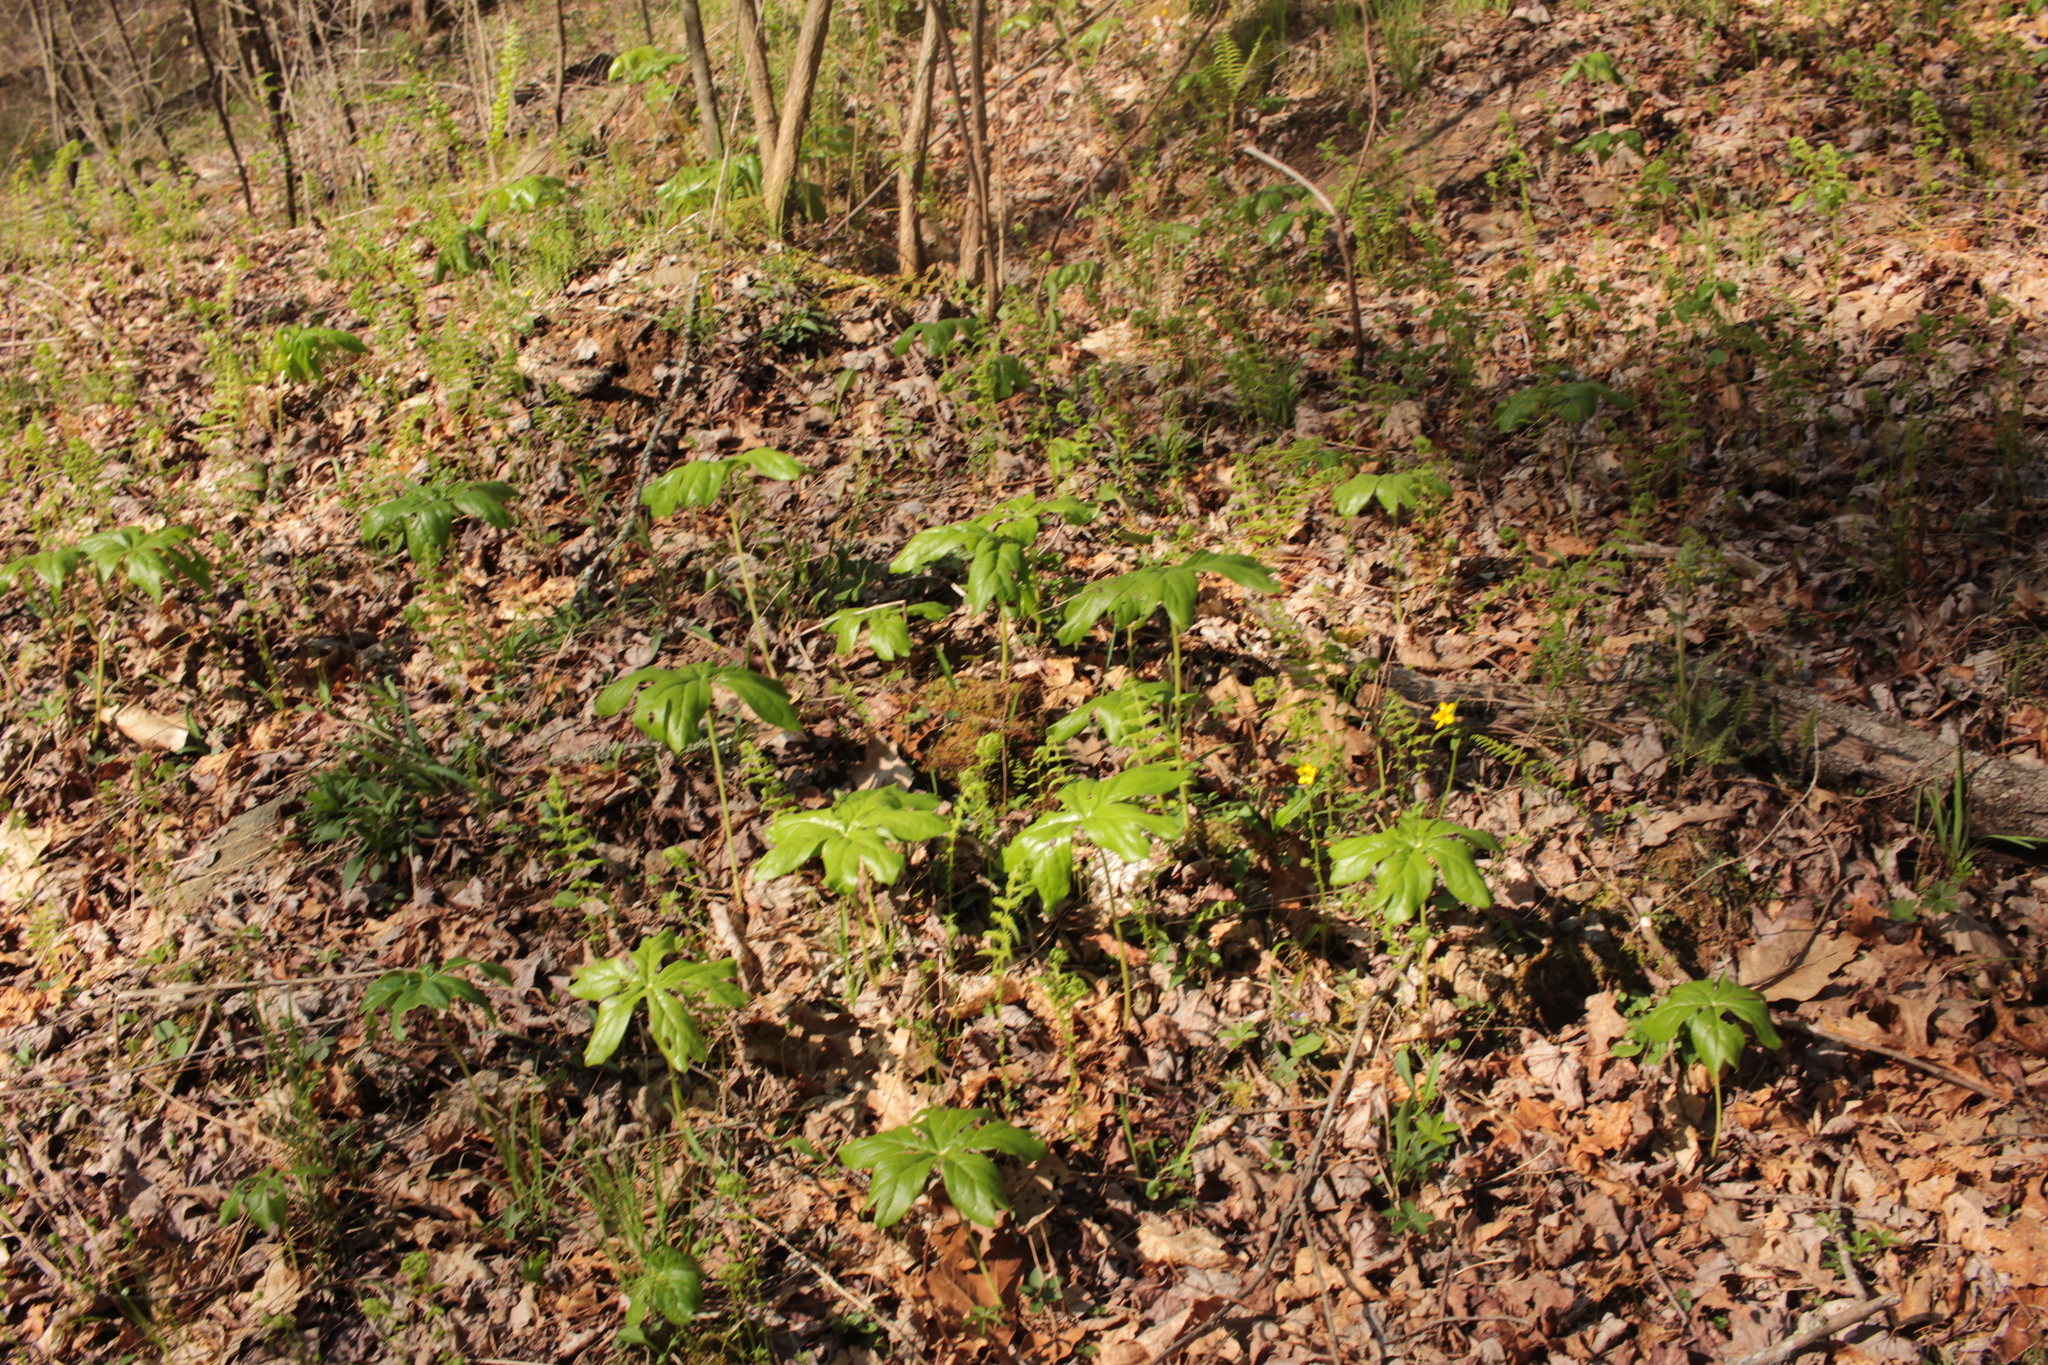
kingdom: Plantae
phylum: Tracheophyta
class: Magnoliopsida
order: Ranunculales
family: Berberidaceae
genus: Podophyllum
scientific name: Podophyllum peltatum
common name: Wild mandrake
